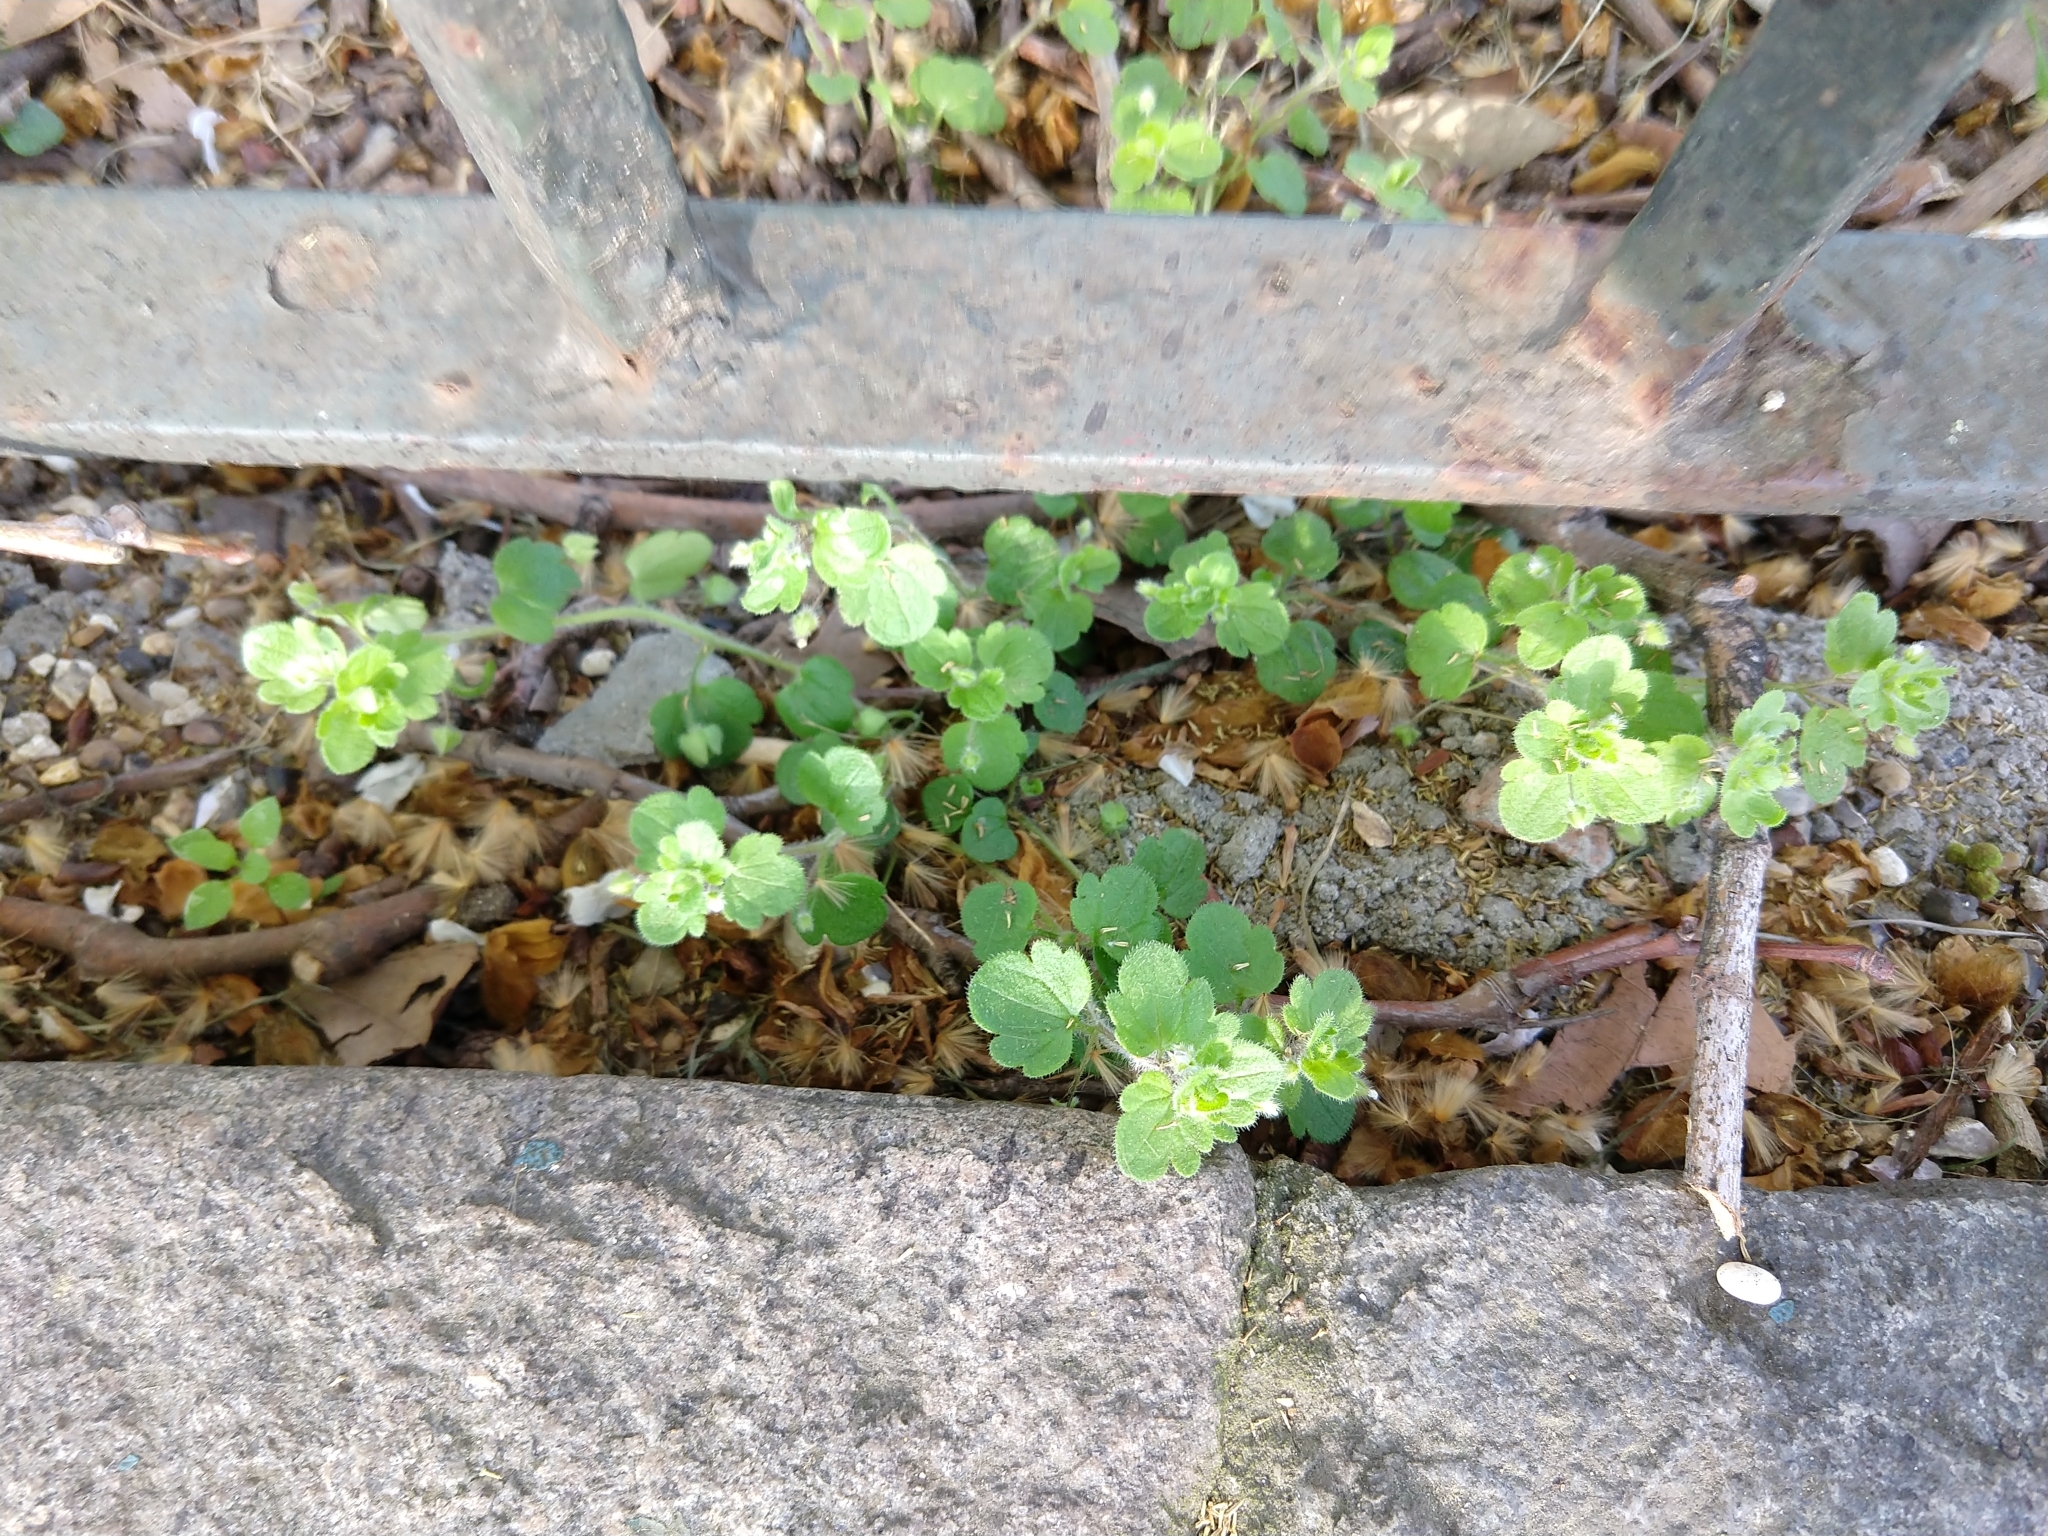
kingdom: Plantae
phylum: Tracheophyta
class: Magnoliopsida
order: Lamiales
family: Plantaginaceae
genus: Veronica
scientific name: Veronica hederifolia
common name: Ivy-leaved speedwell
